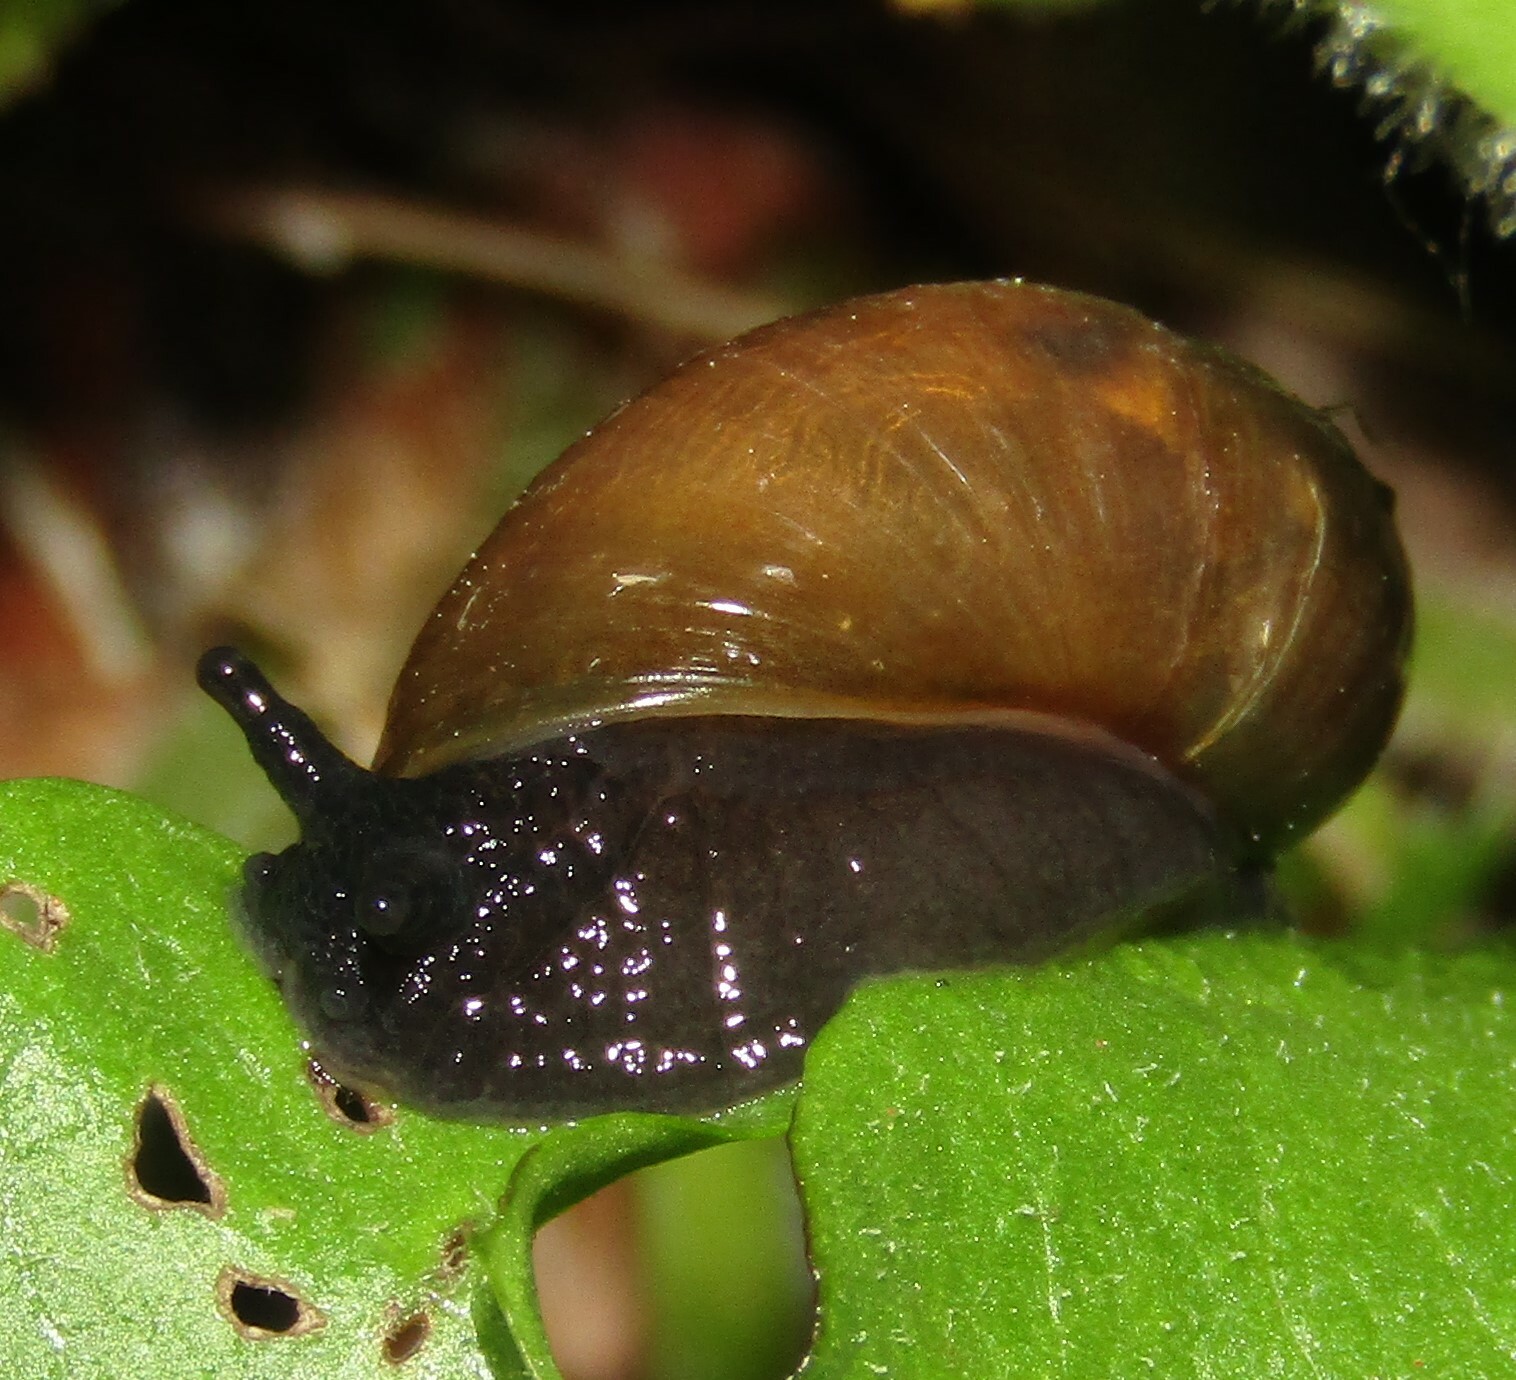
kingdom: Animalia
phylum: Mollusca
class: Gastropoda
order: Stylommatophora
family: Succineidae
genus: Succinea
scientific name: Succinea putris
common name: European ambersnail
